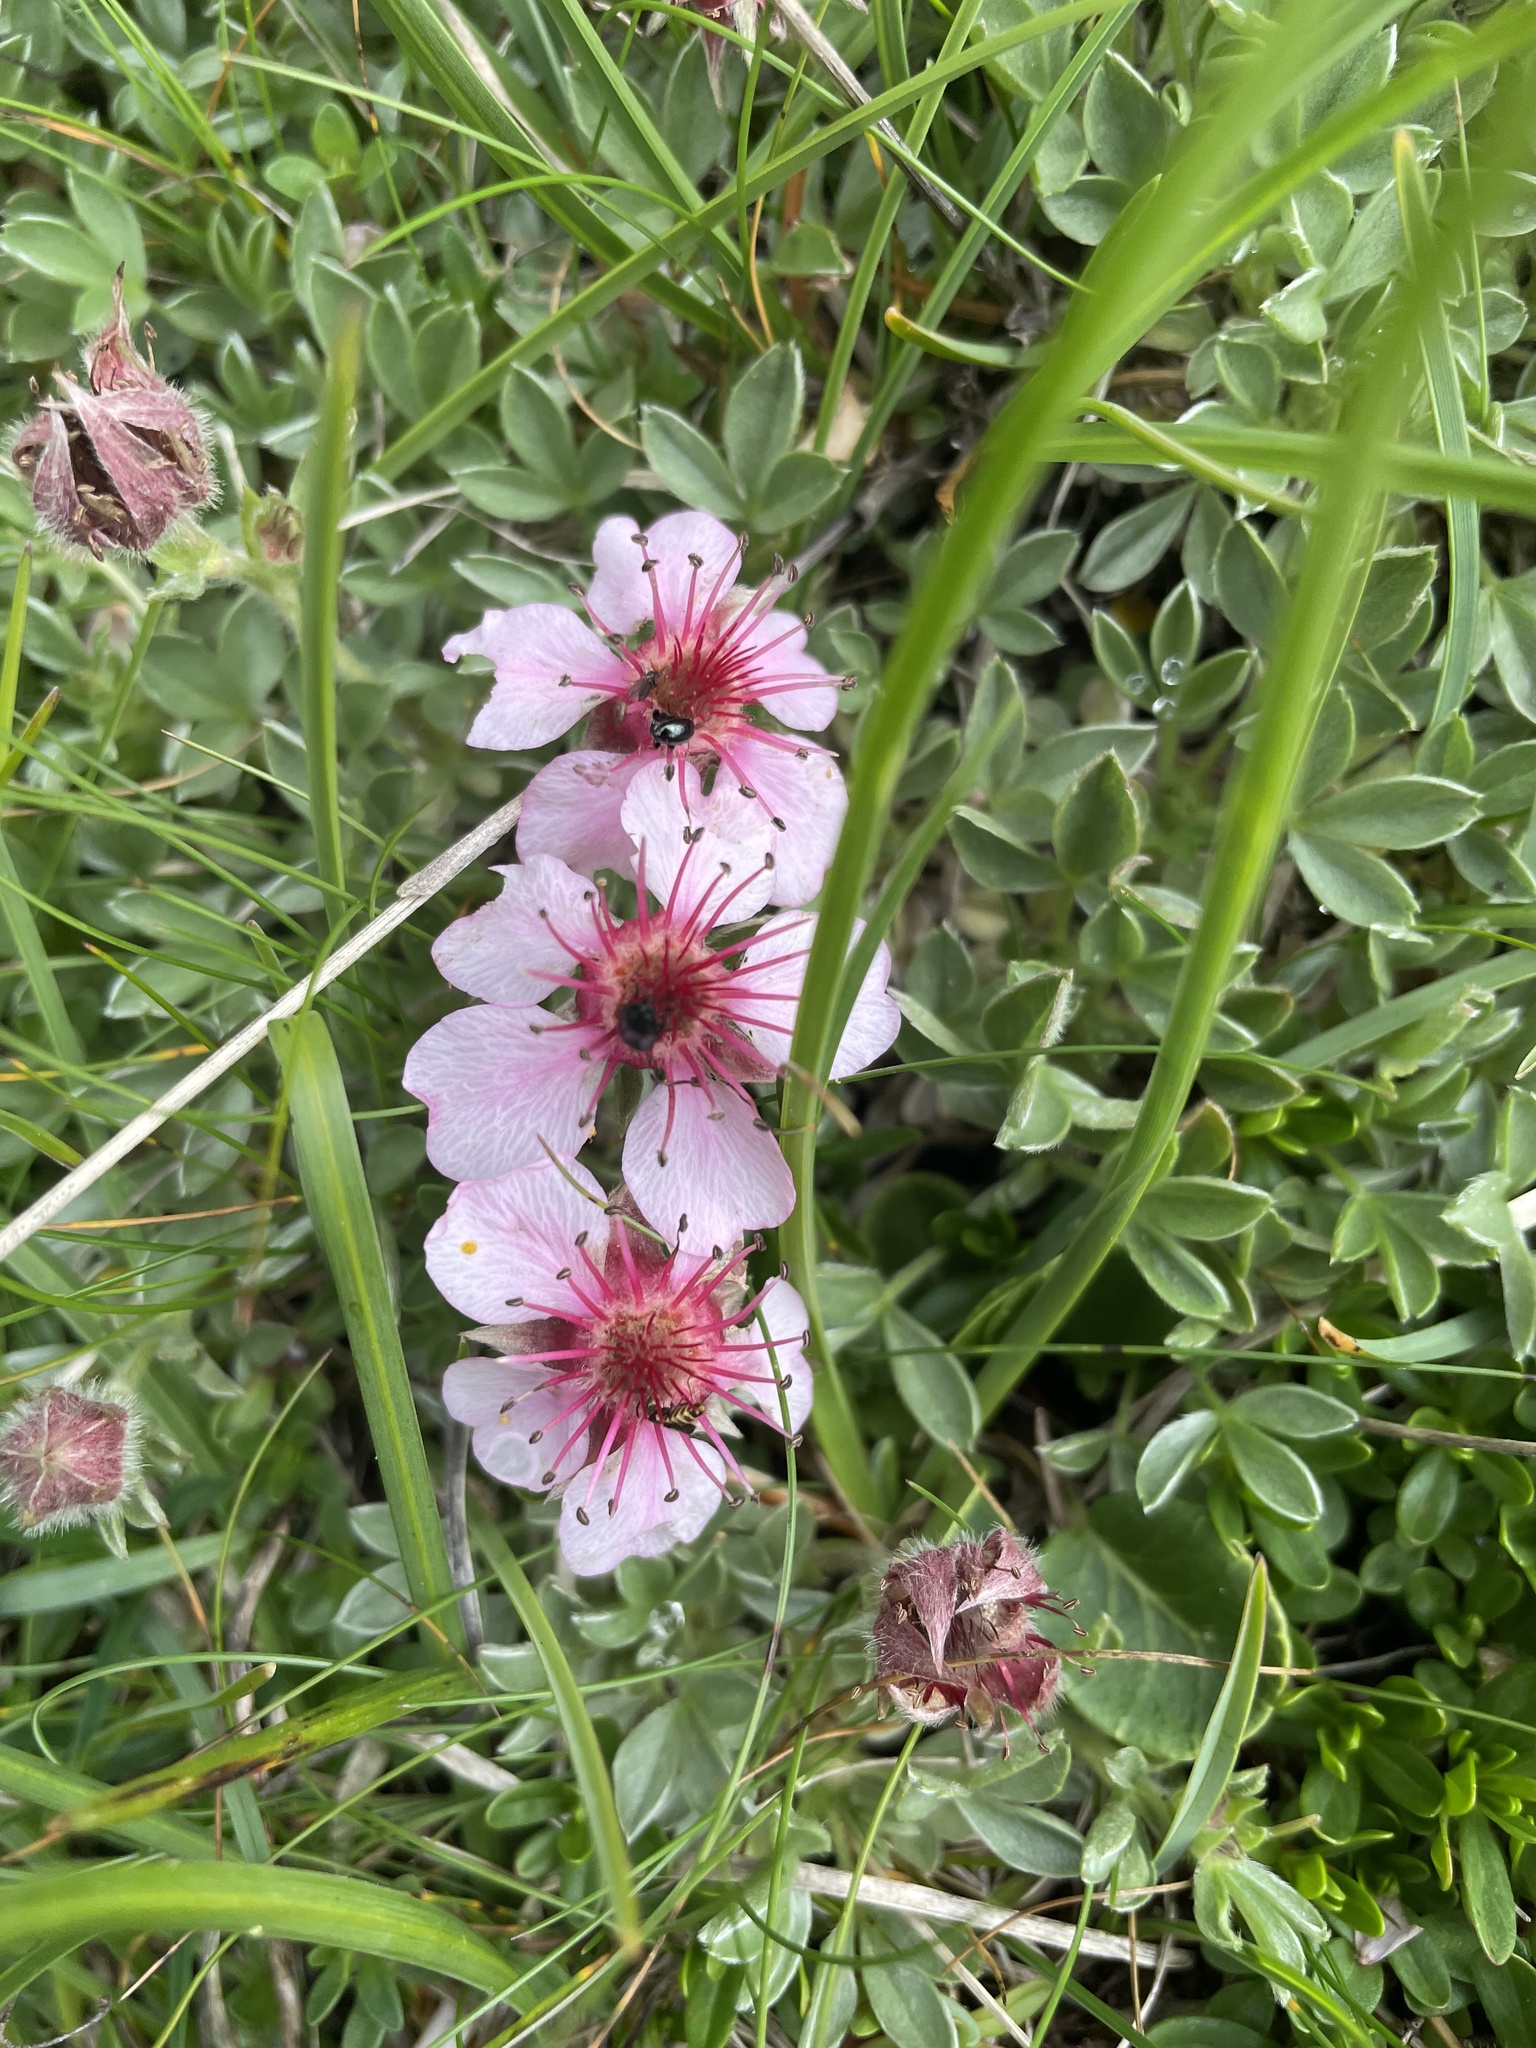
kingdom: Plantae
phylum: Tracheophyta
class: Magnoliopsida
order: Rosales
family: Rosaceae
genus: Potentilla
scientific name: Potentilla nitida
